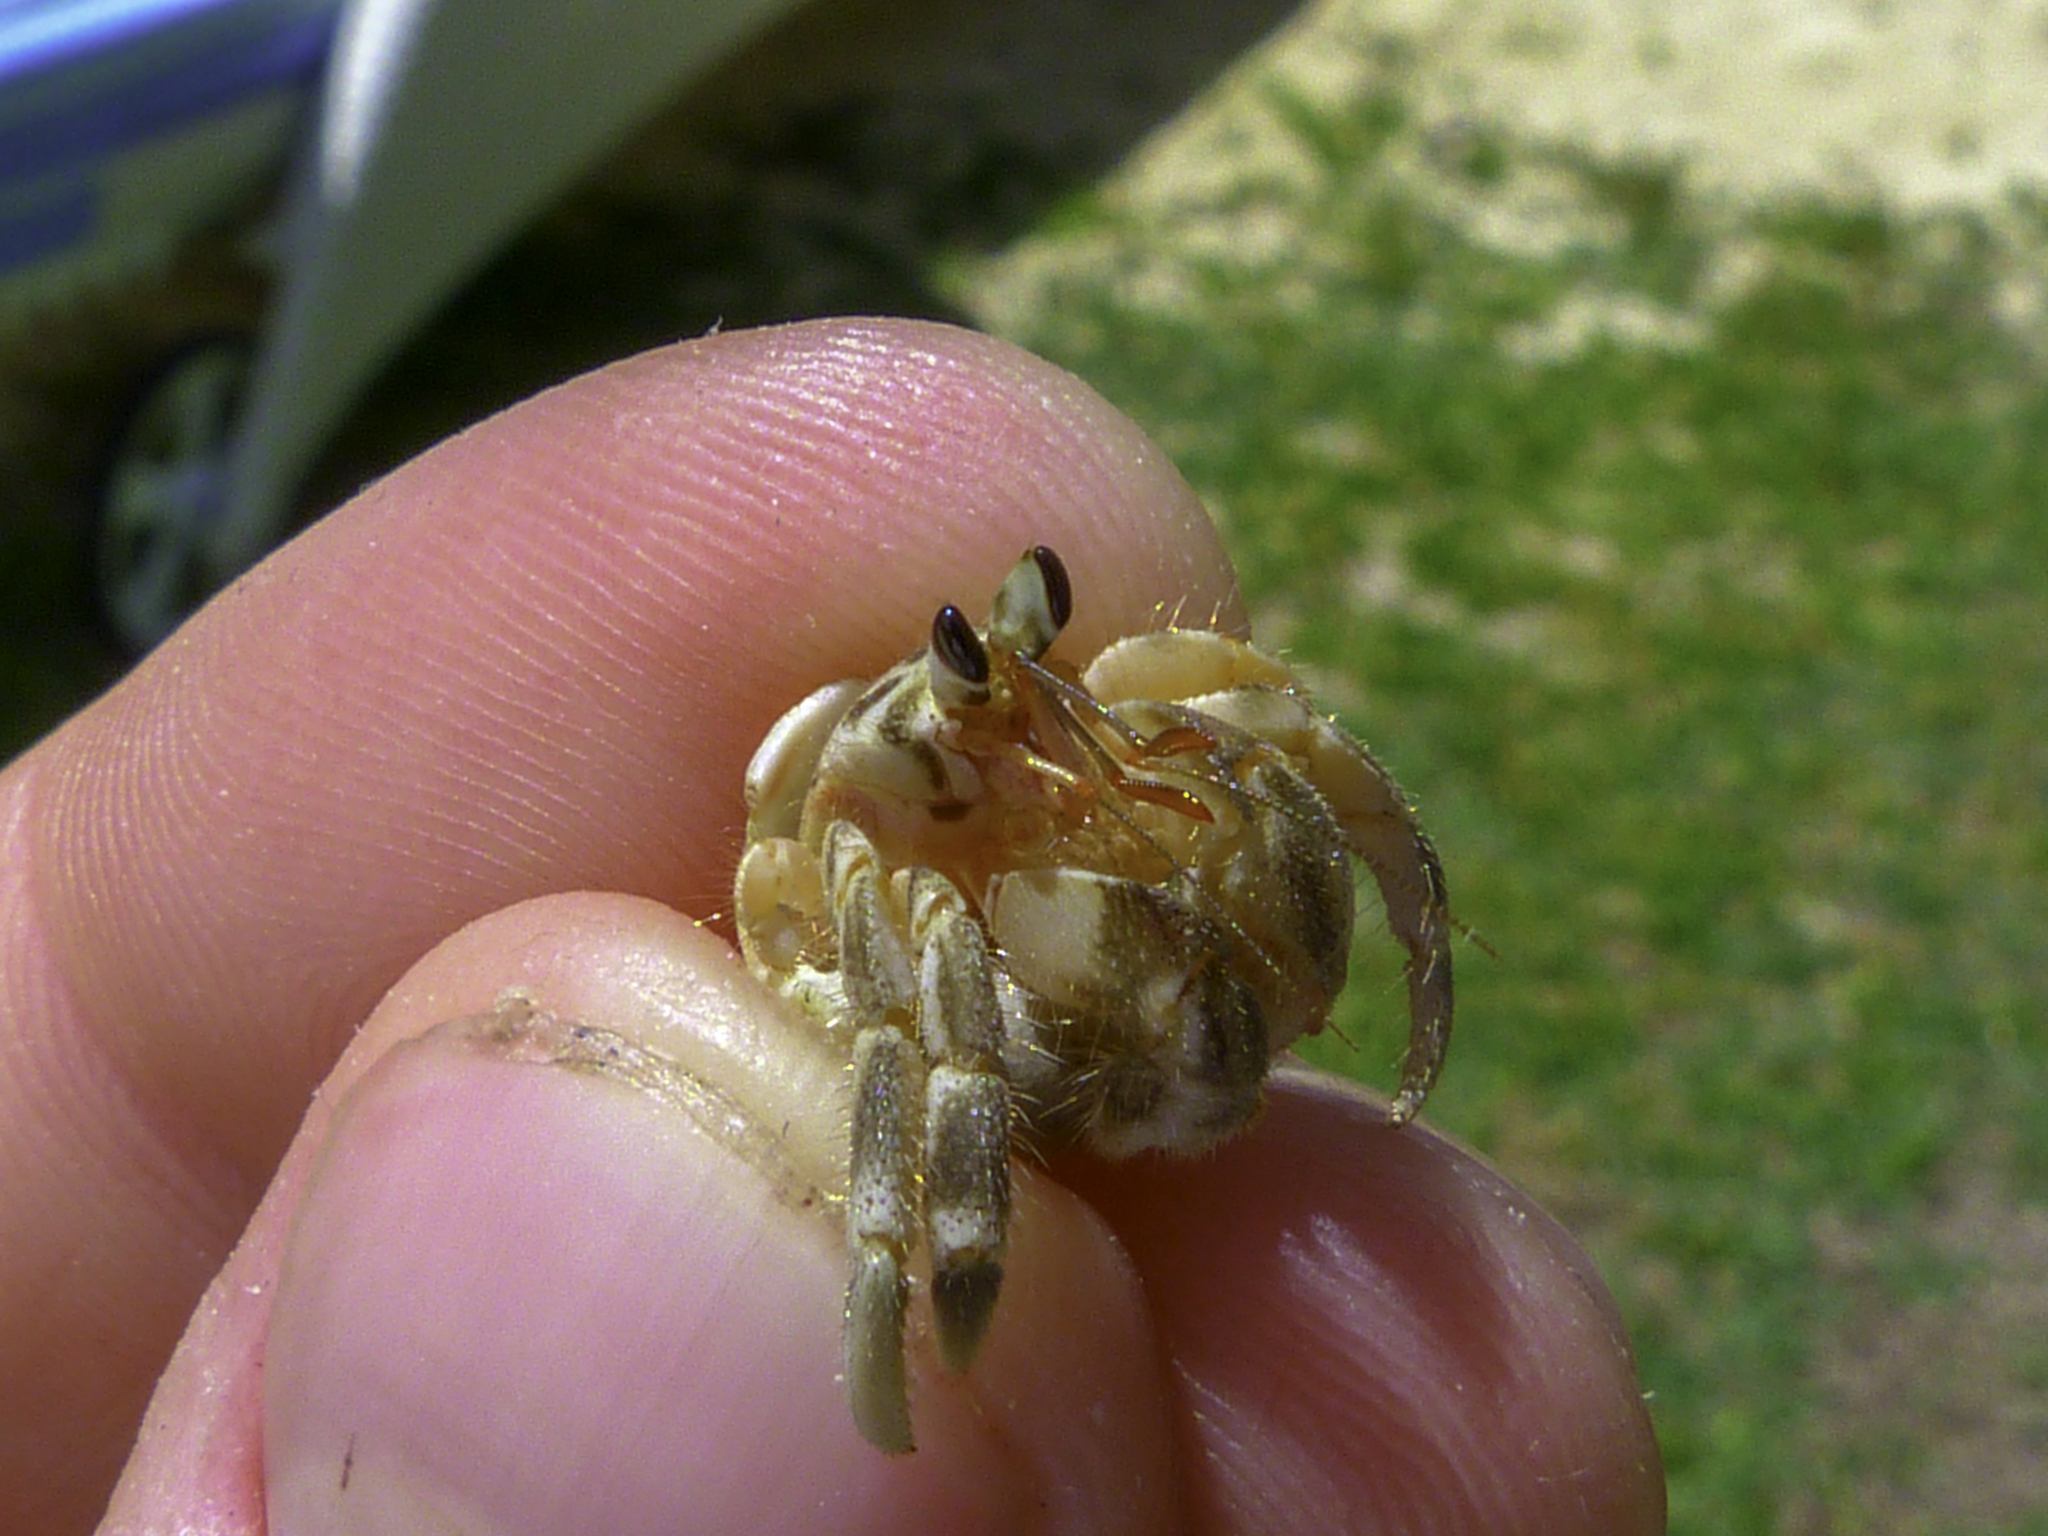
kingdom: Animalia
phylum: Arthropoda
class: Malacostraca
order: Decapoda
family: Coenobitidae
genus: Coenobita
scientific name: Coenobita rugosus
